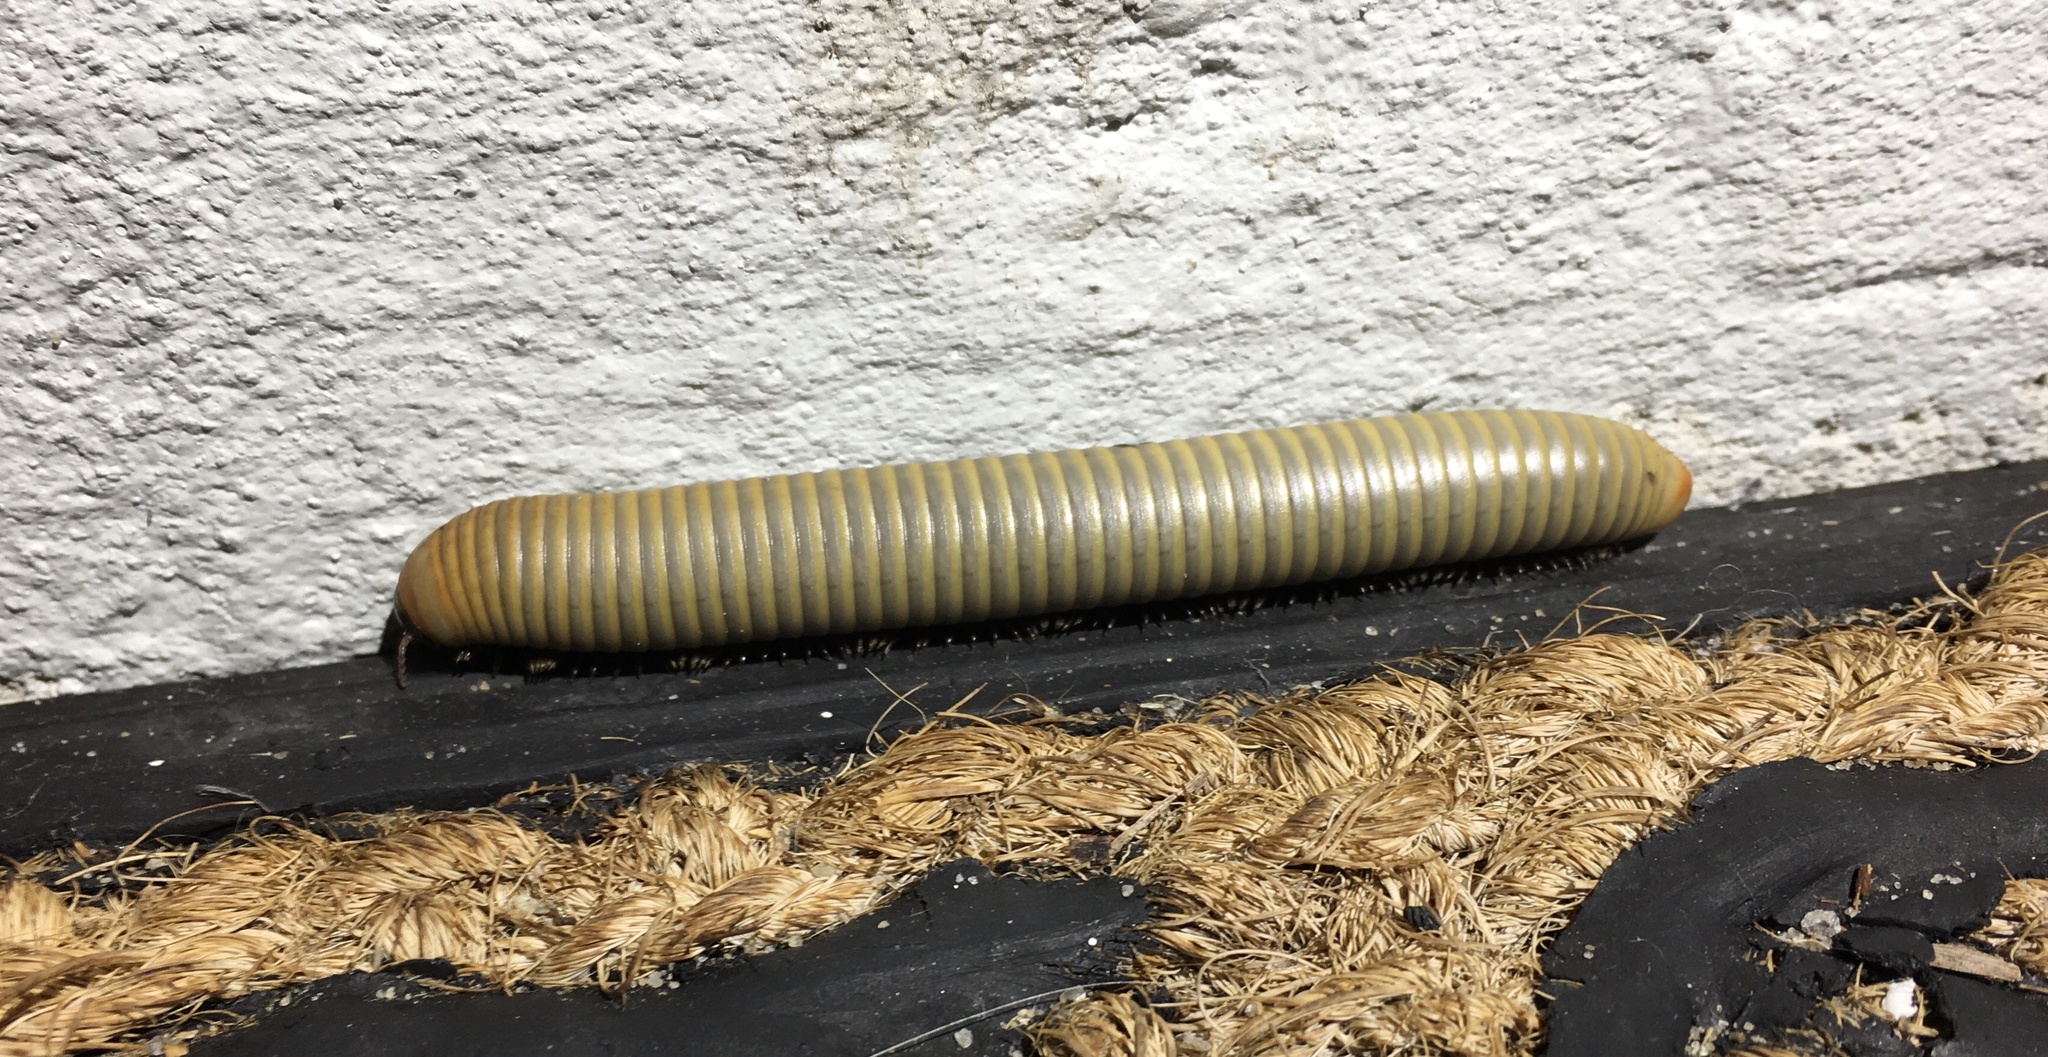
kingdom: Animalia
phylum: Arthropoda
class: Diplopoda
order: Spirobolida
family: Spirobolidae
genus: Narceus
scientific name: Narceus gordanus
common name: Grayish-green millipede
